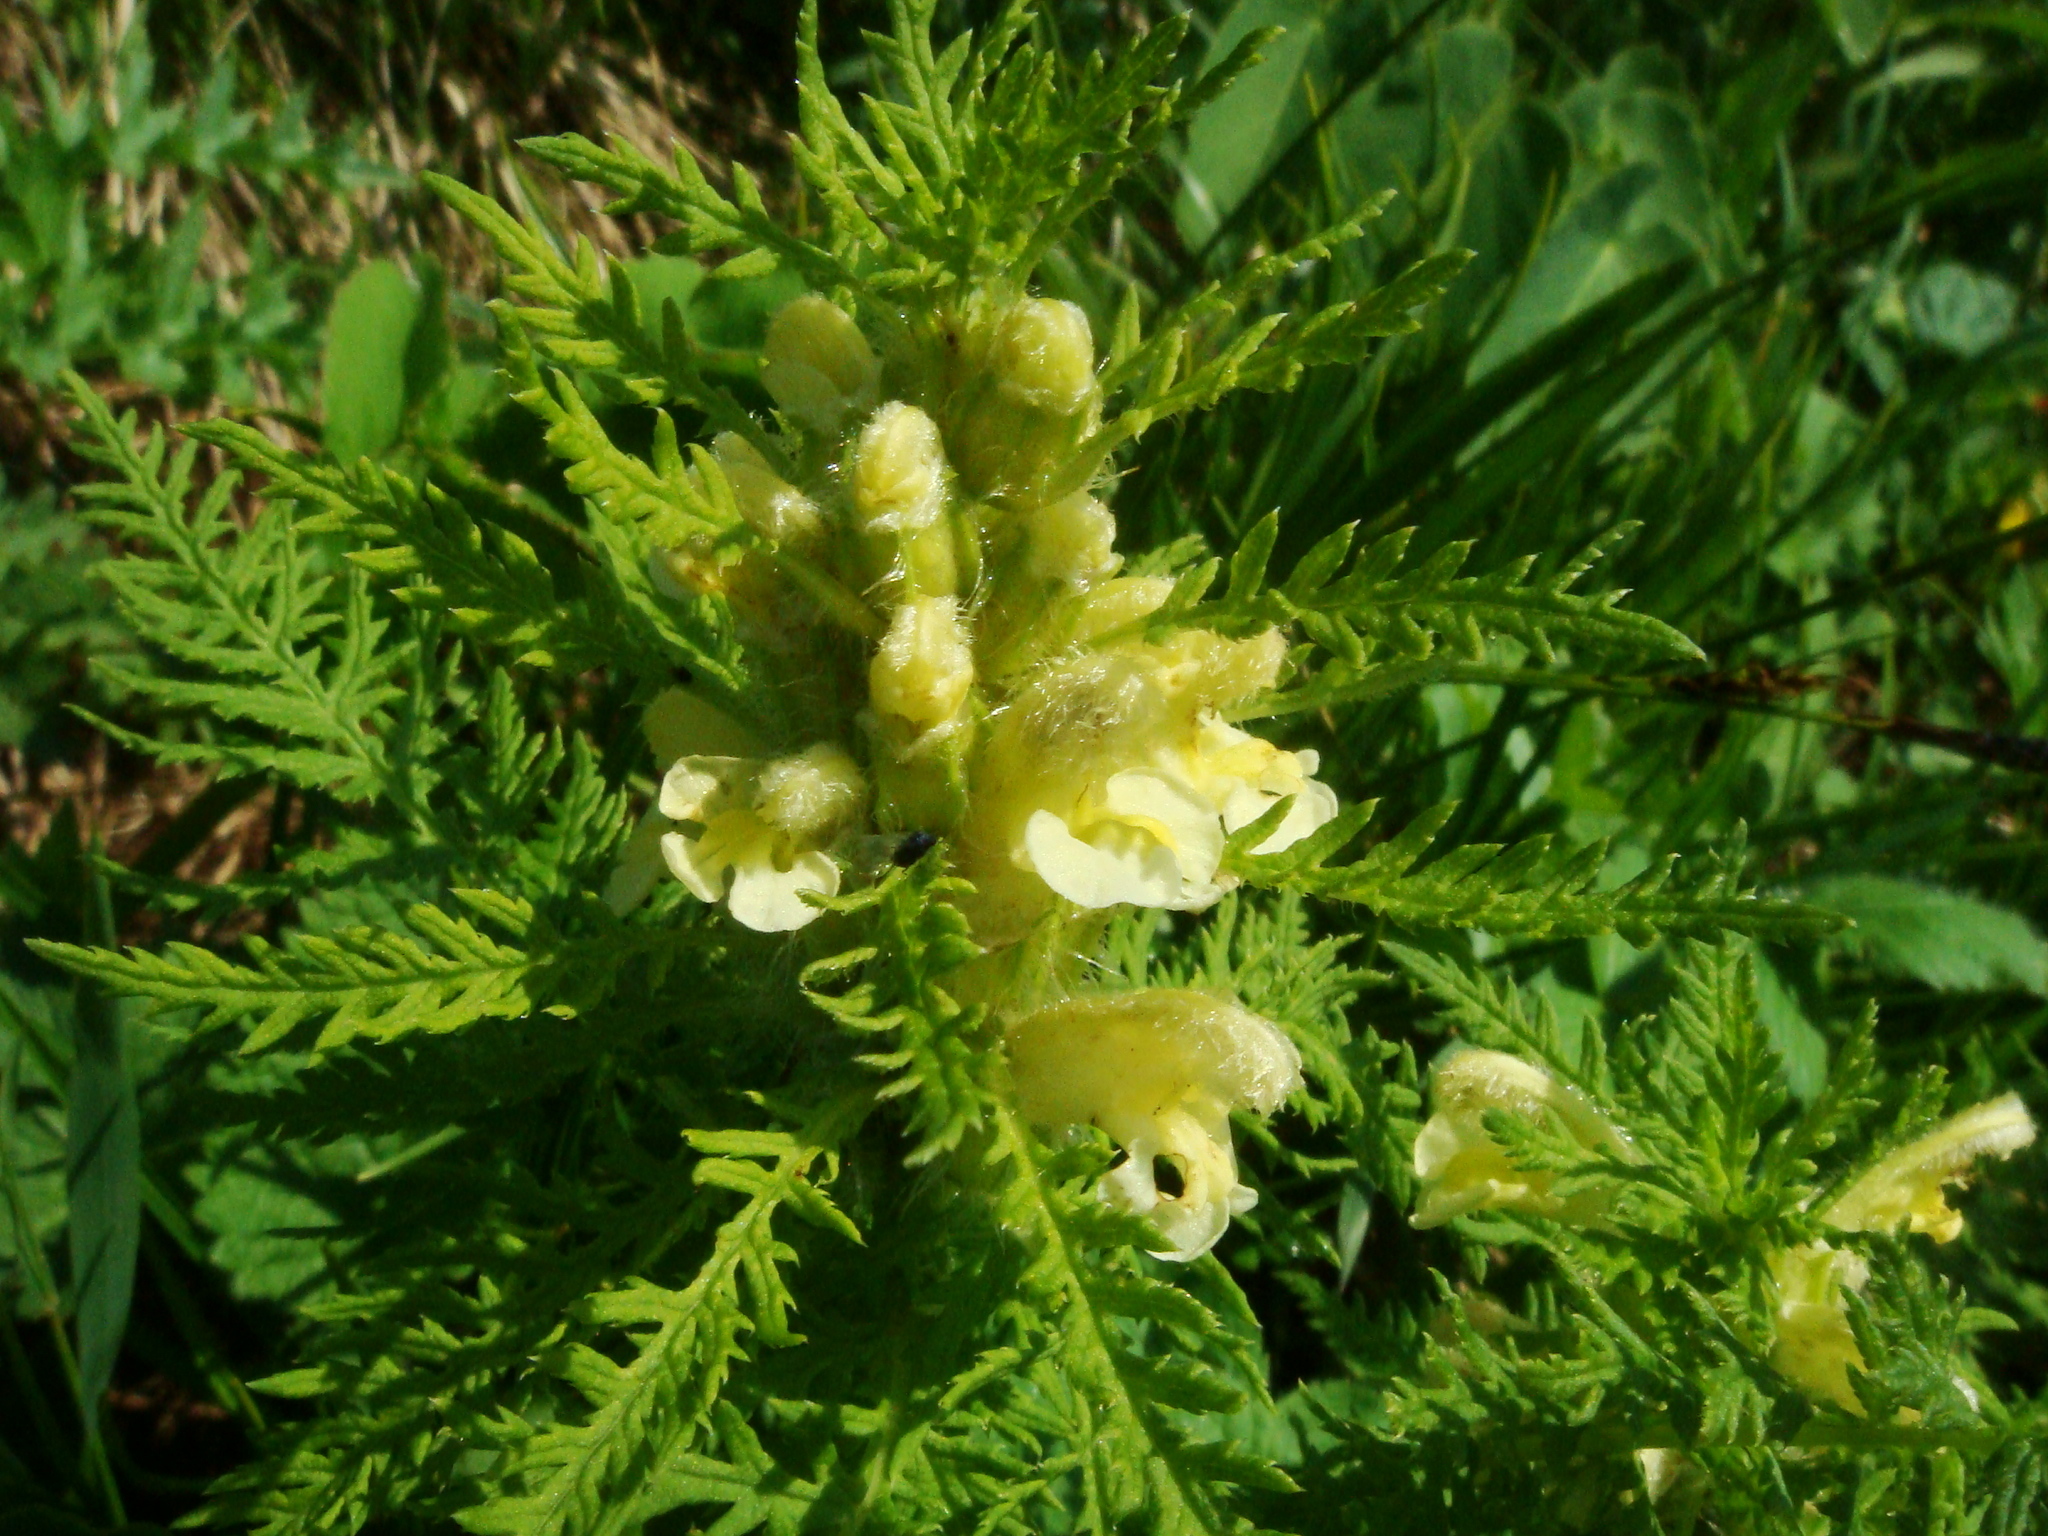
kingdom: Plantae
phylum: Tracheophyta
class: Magnoliopsida
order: Lamiales
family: Orobanchaceae
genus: Pedicularis
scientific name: Pedicularis foliosa
